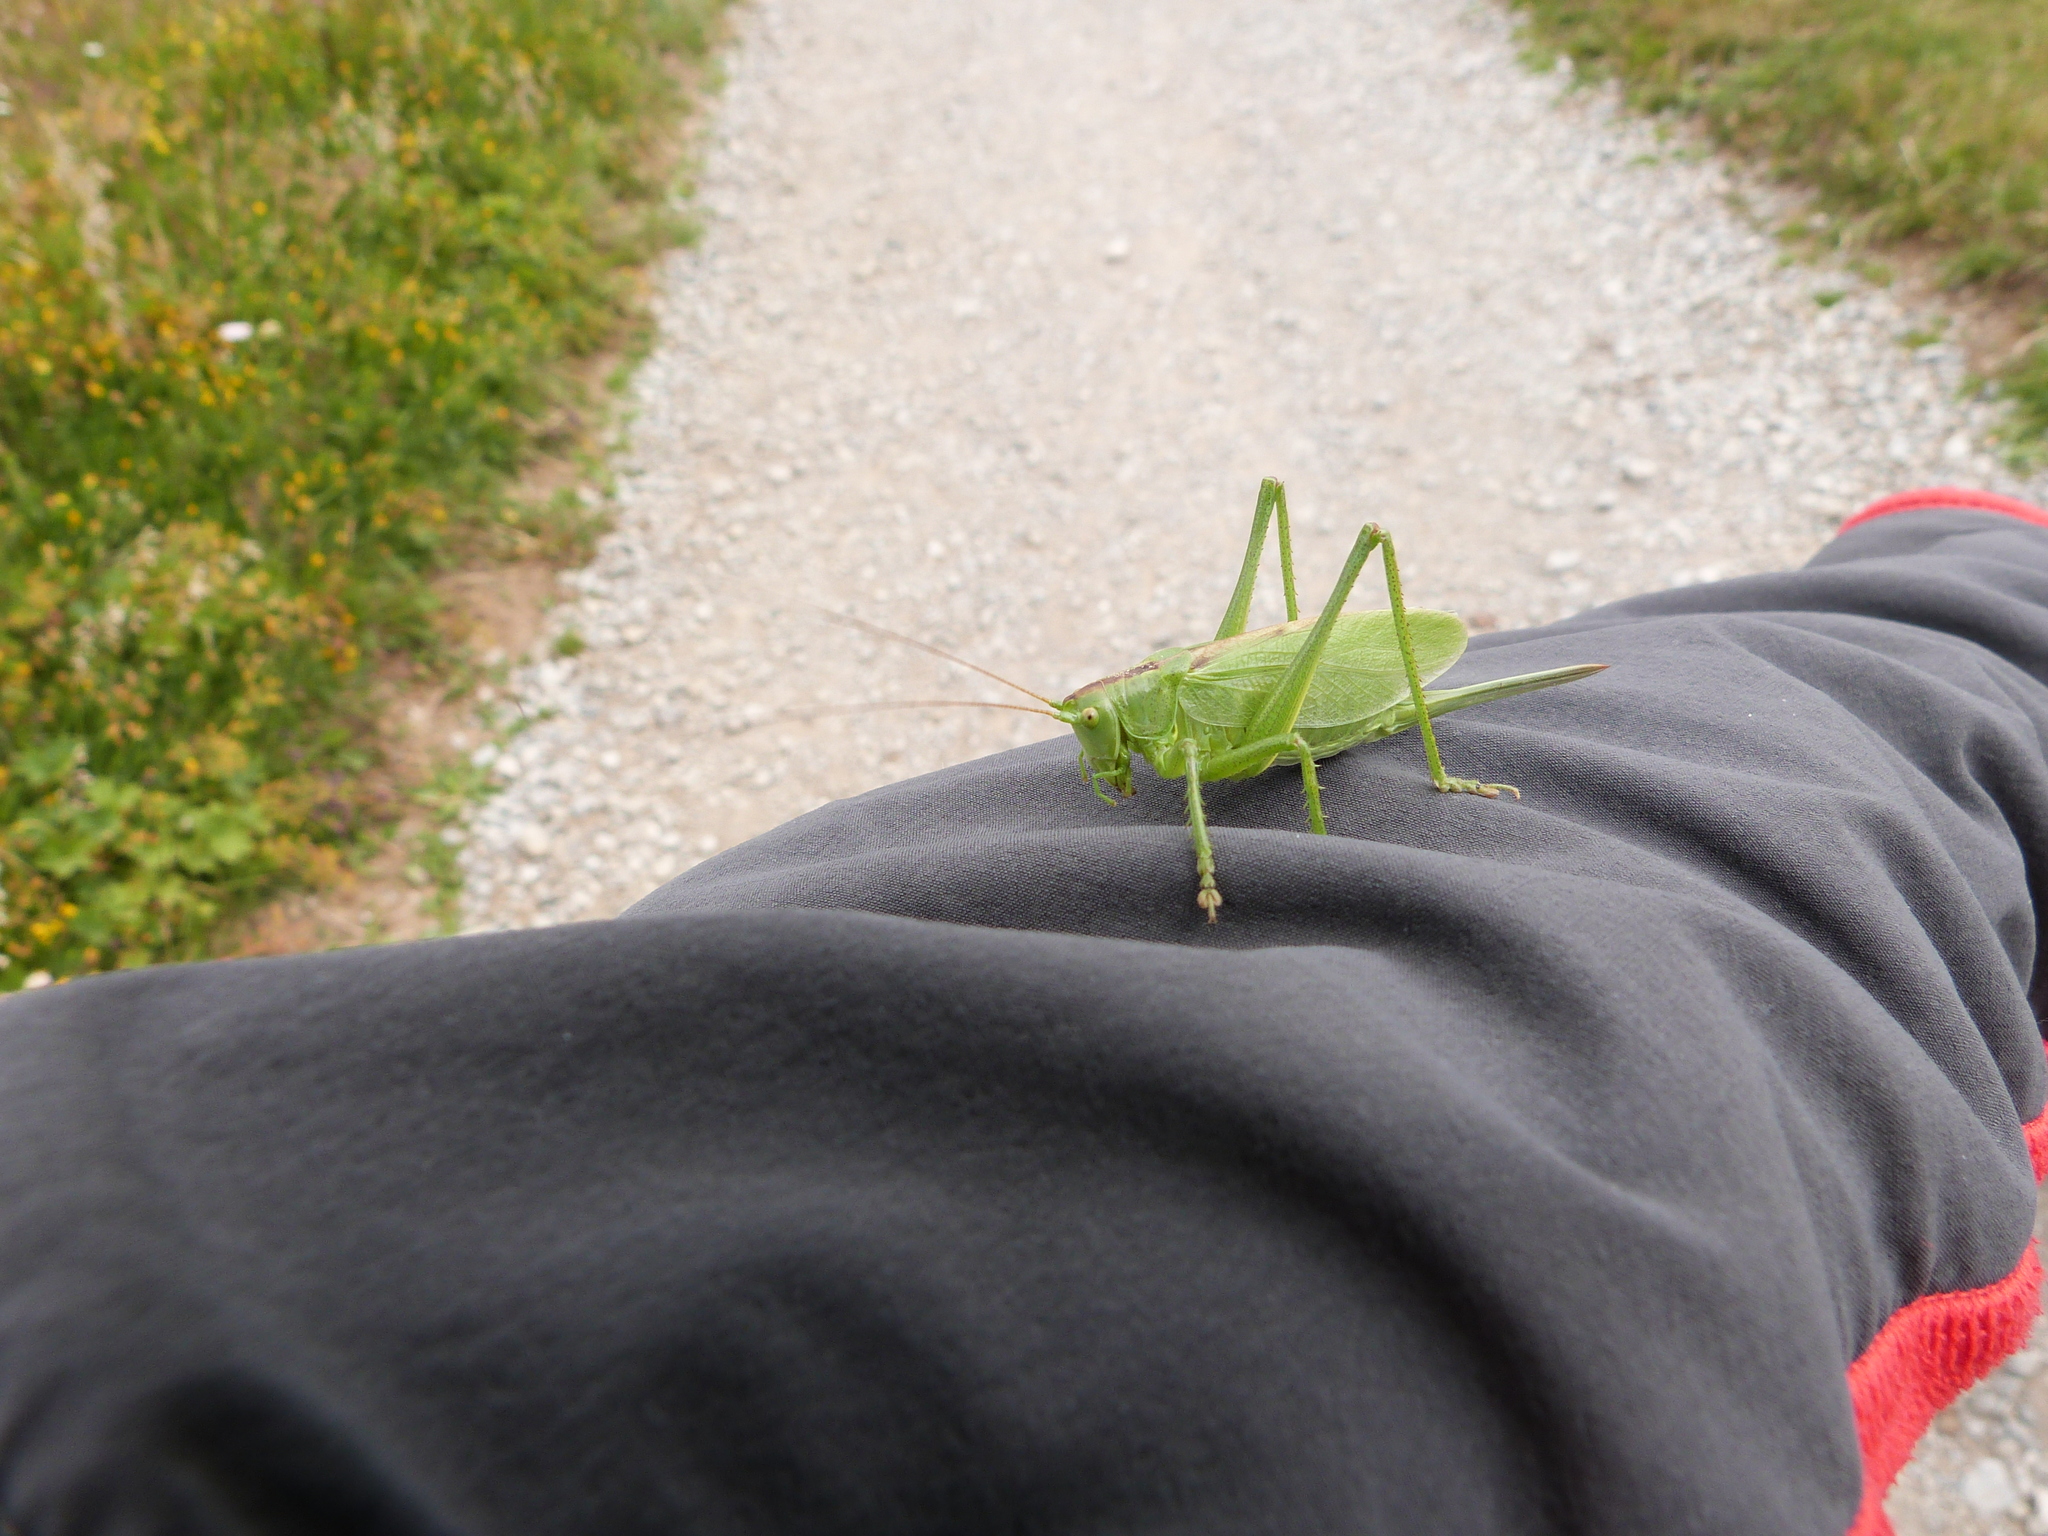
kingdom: Animalia
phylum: Arthropoda
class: Insecta
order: Orthoptera
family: Tettigoniidae
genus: Tettigonia
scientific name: Tettigonia cantans
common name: Upland green bush-cricket
